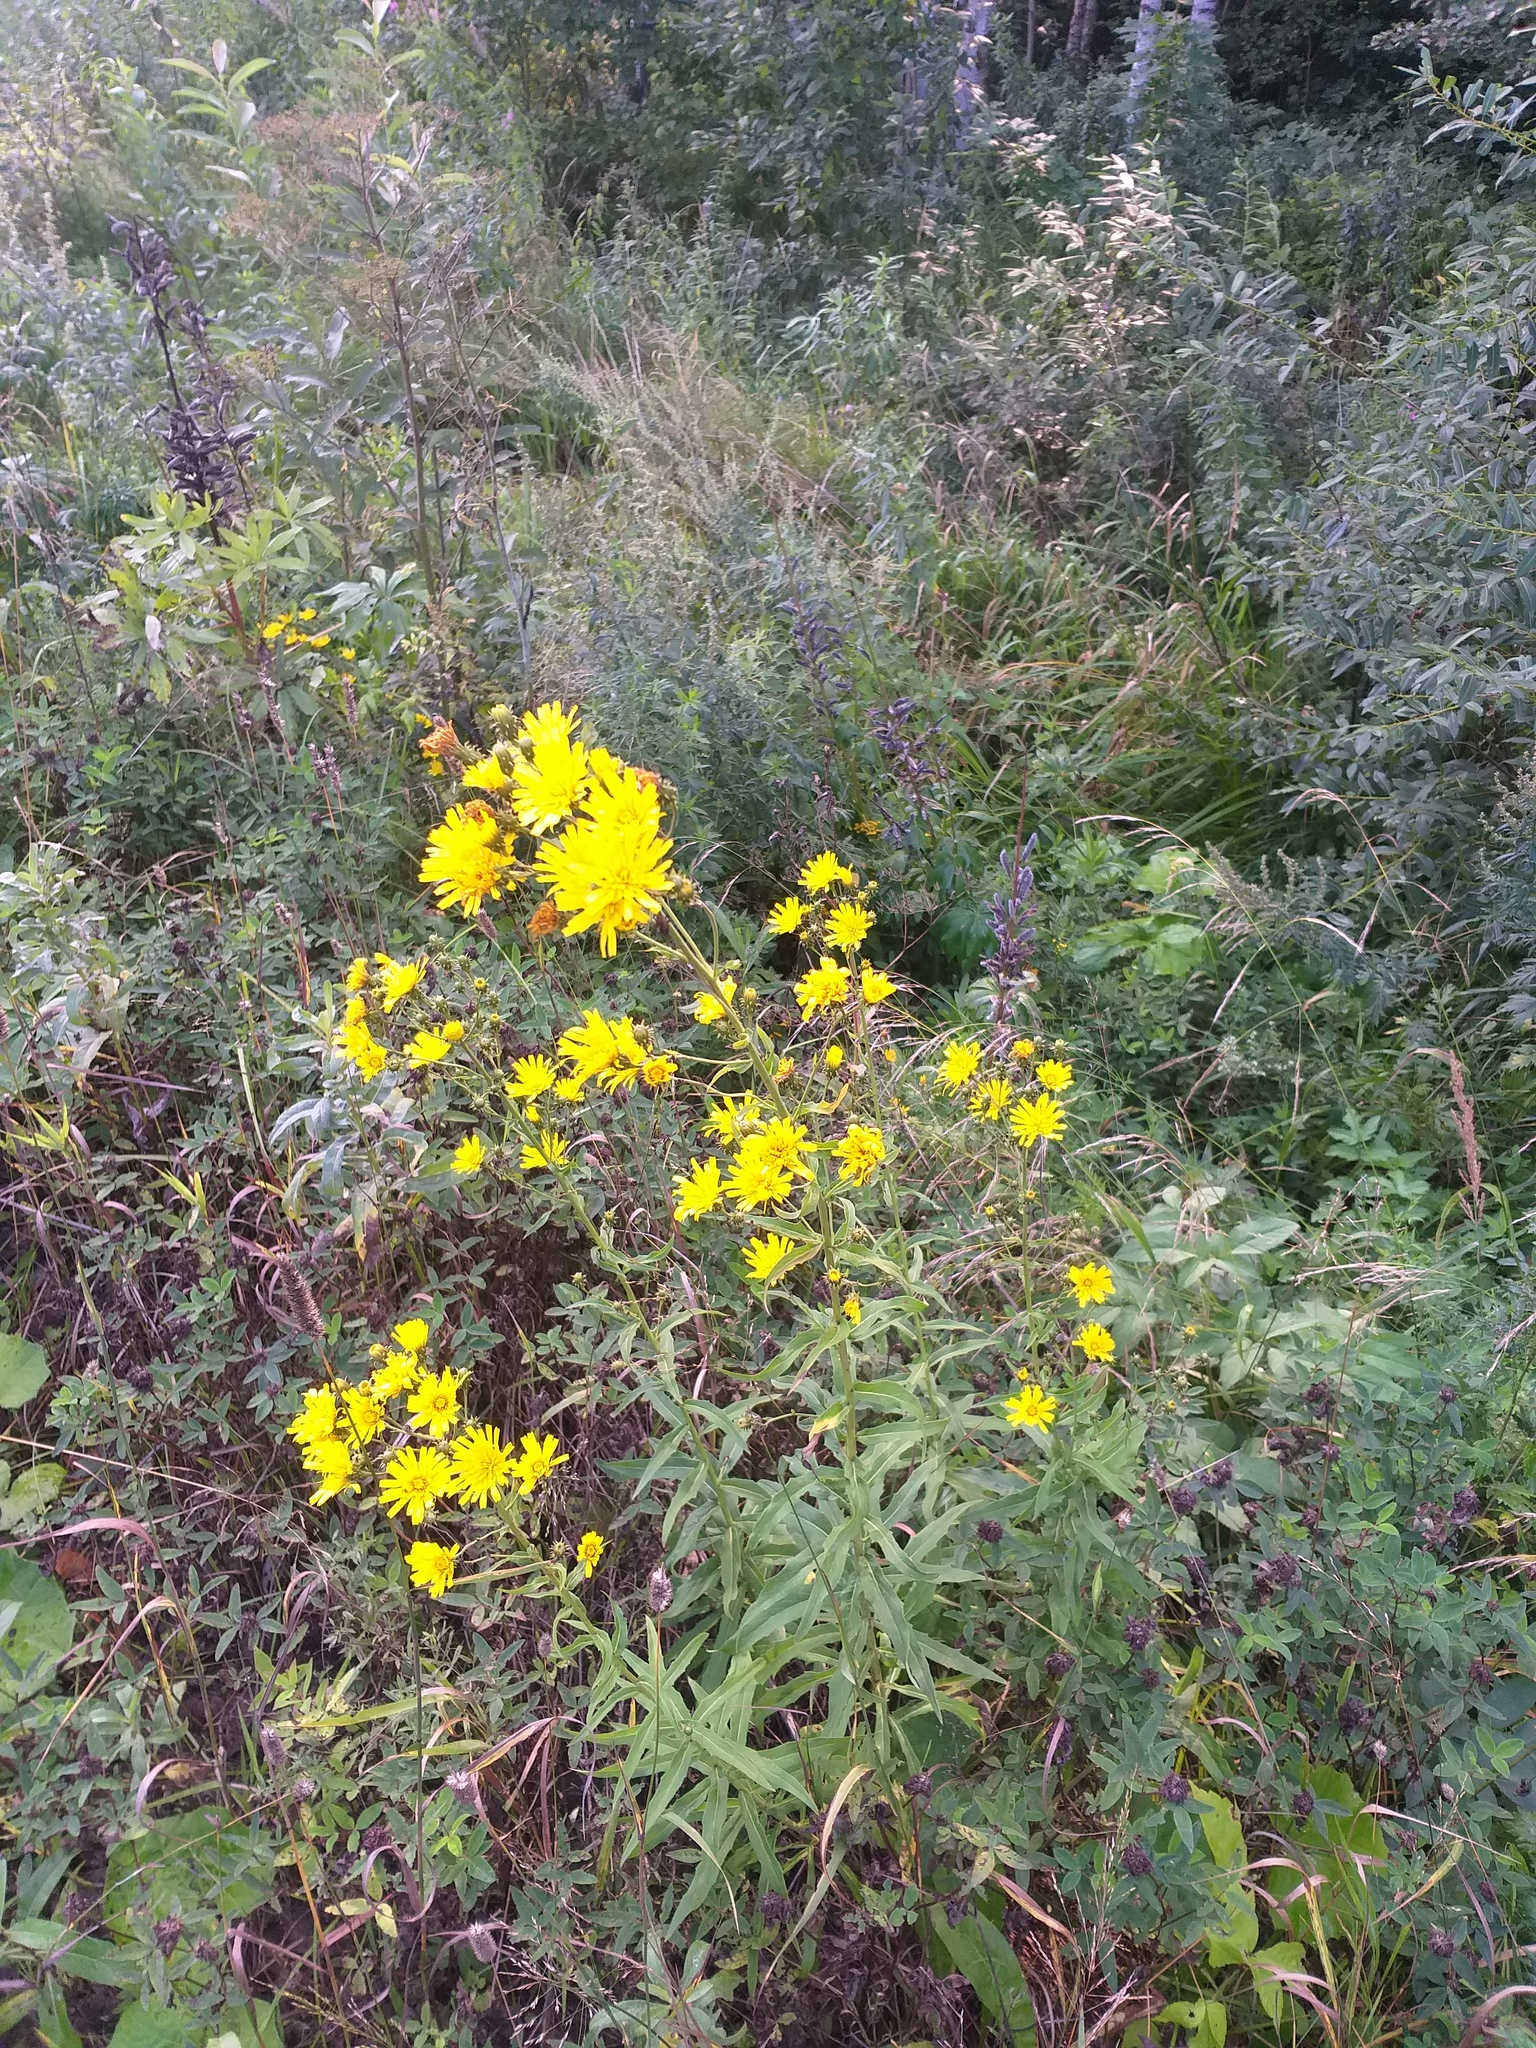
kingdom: Plantae
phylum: Tracheophyta
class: Magnoliopsida
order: Asterales
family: Asteraceae
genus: Hieracium
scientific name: Hieracium umbellatum
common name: Northern hawkweed
